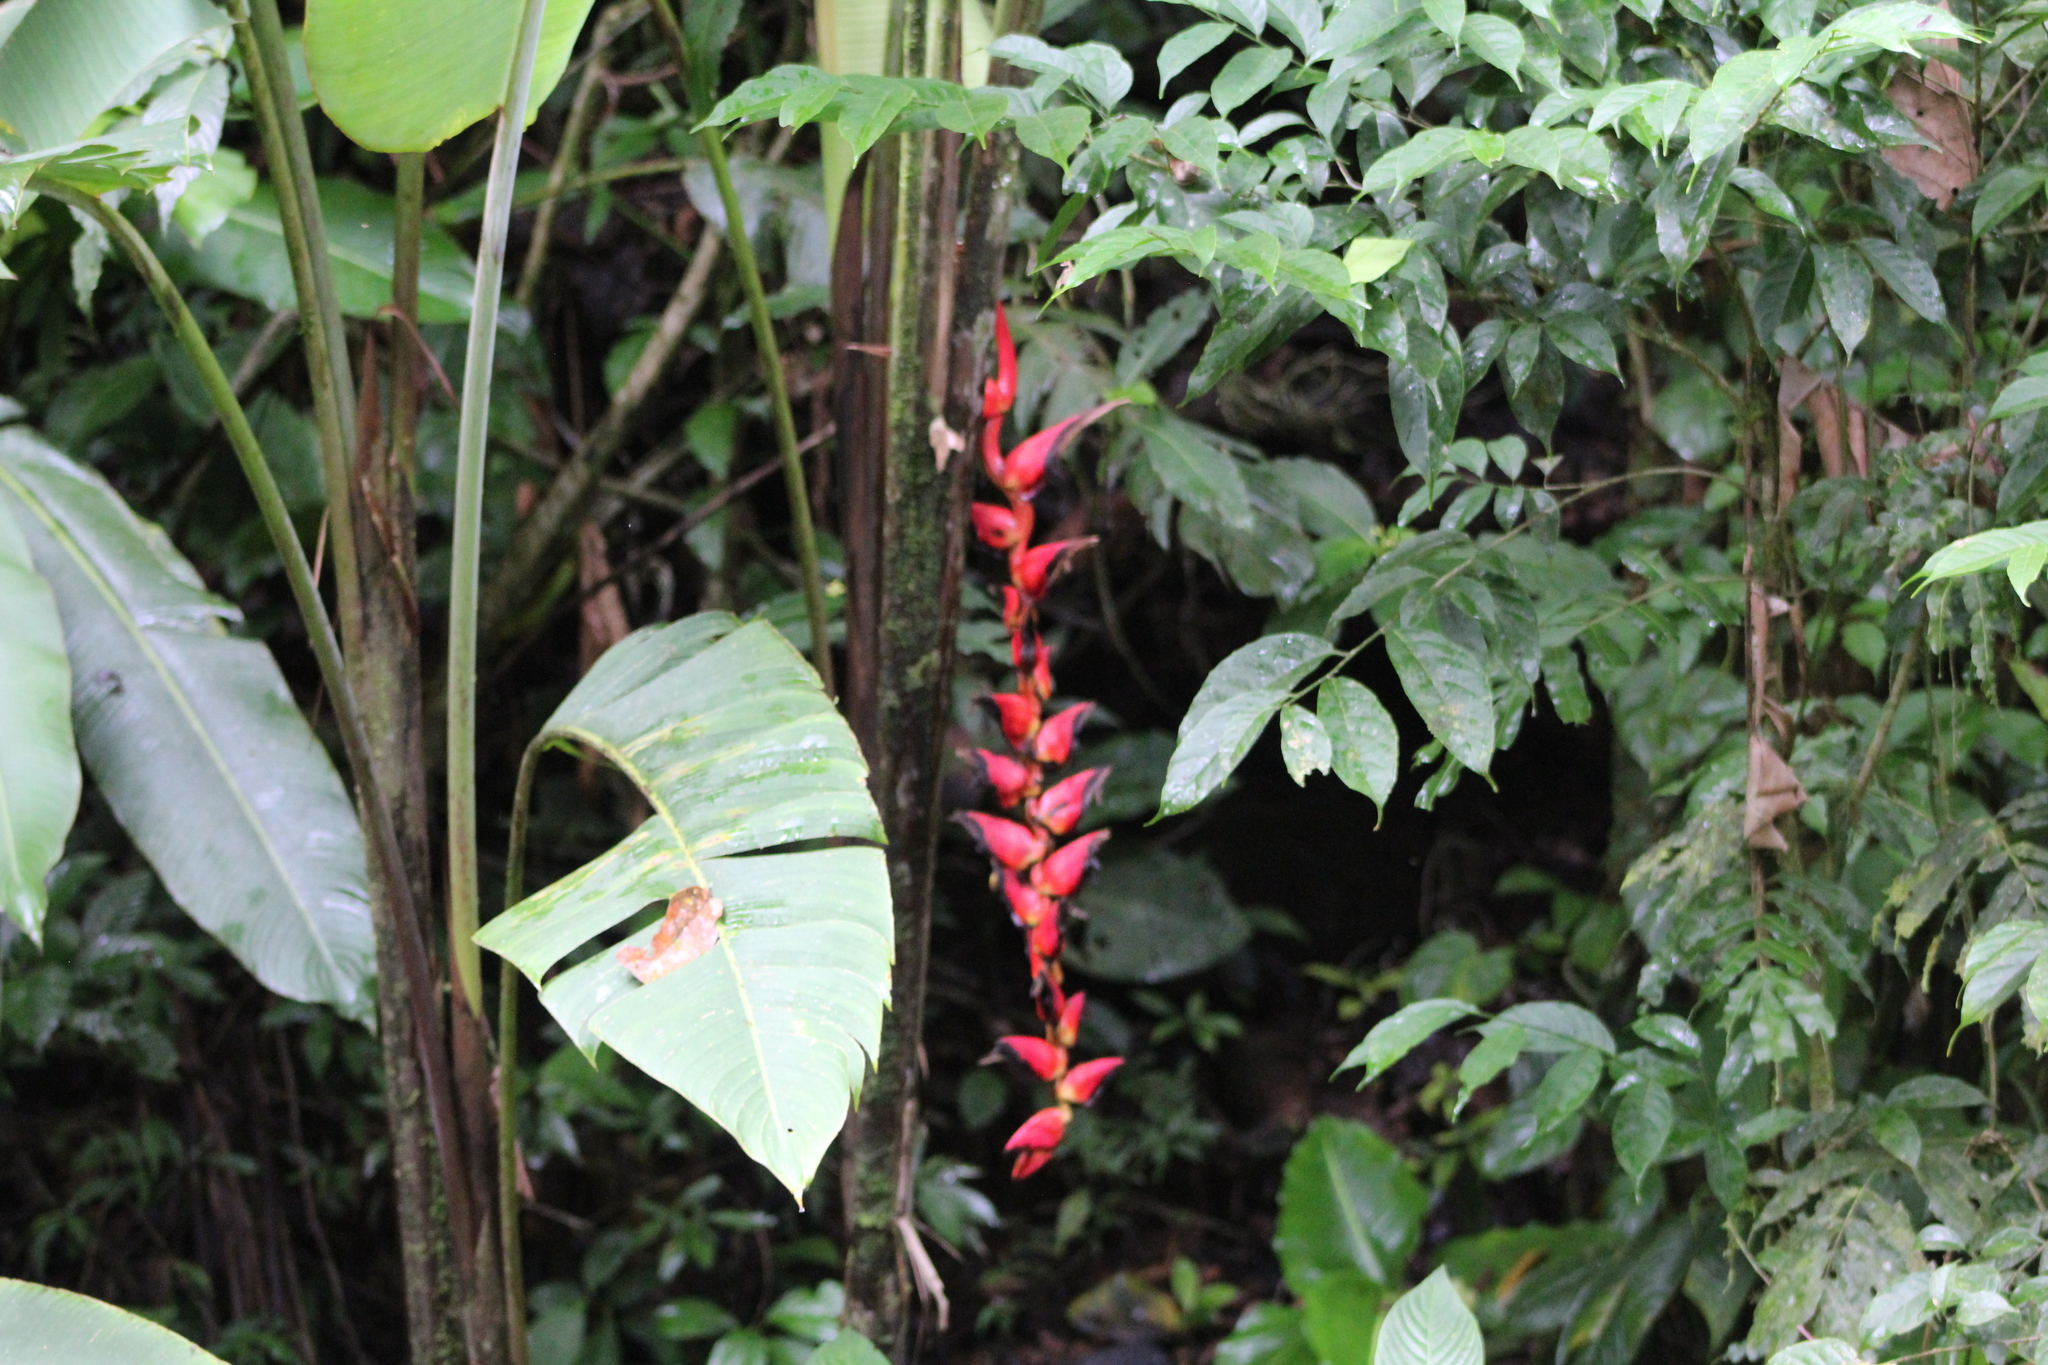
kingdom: Plantae
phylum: Tracheophyta
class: Liliopsida
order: Zingiberales
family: Heliconiaceae
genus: Heliconia
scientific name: Heliconia pogonantha
